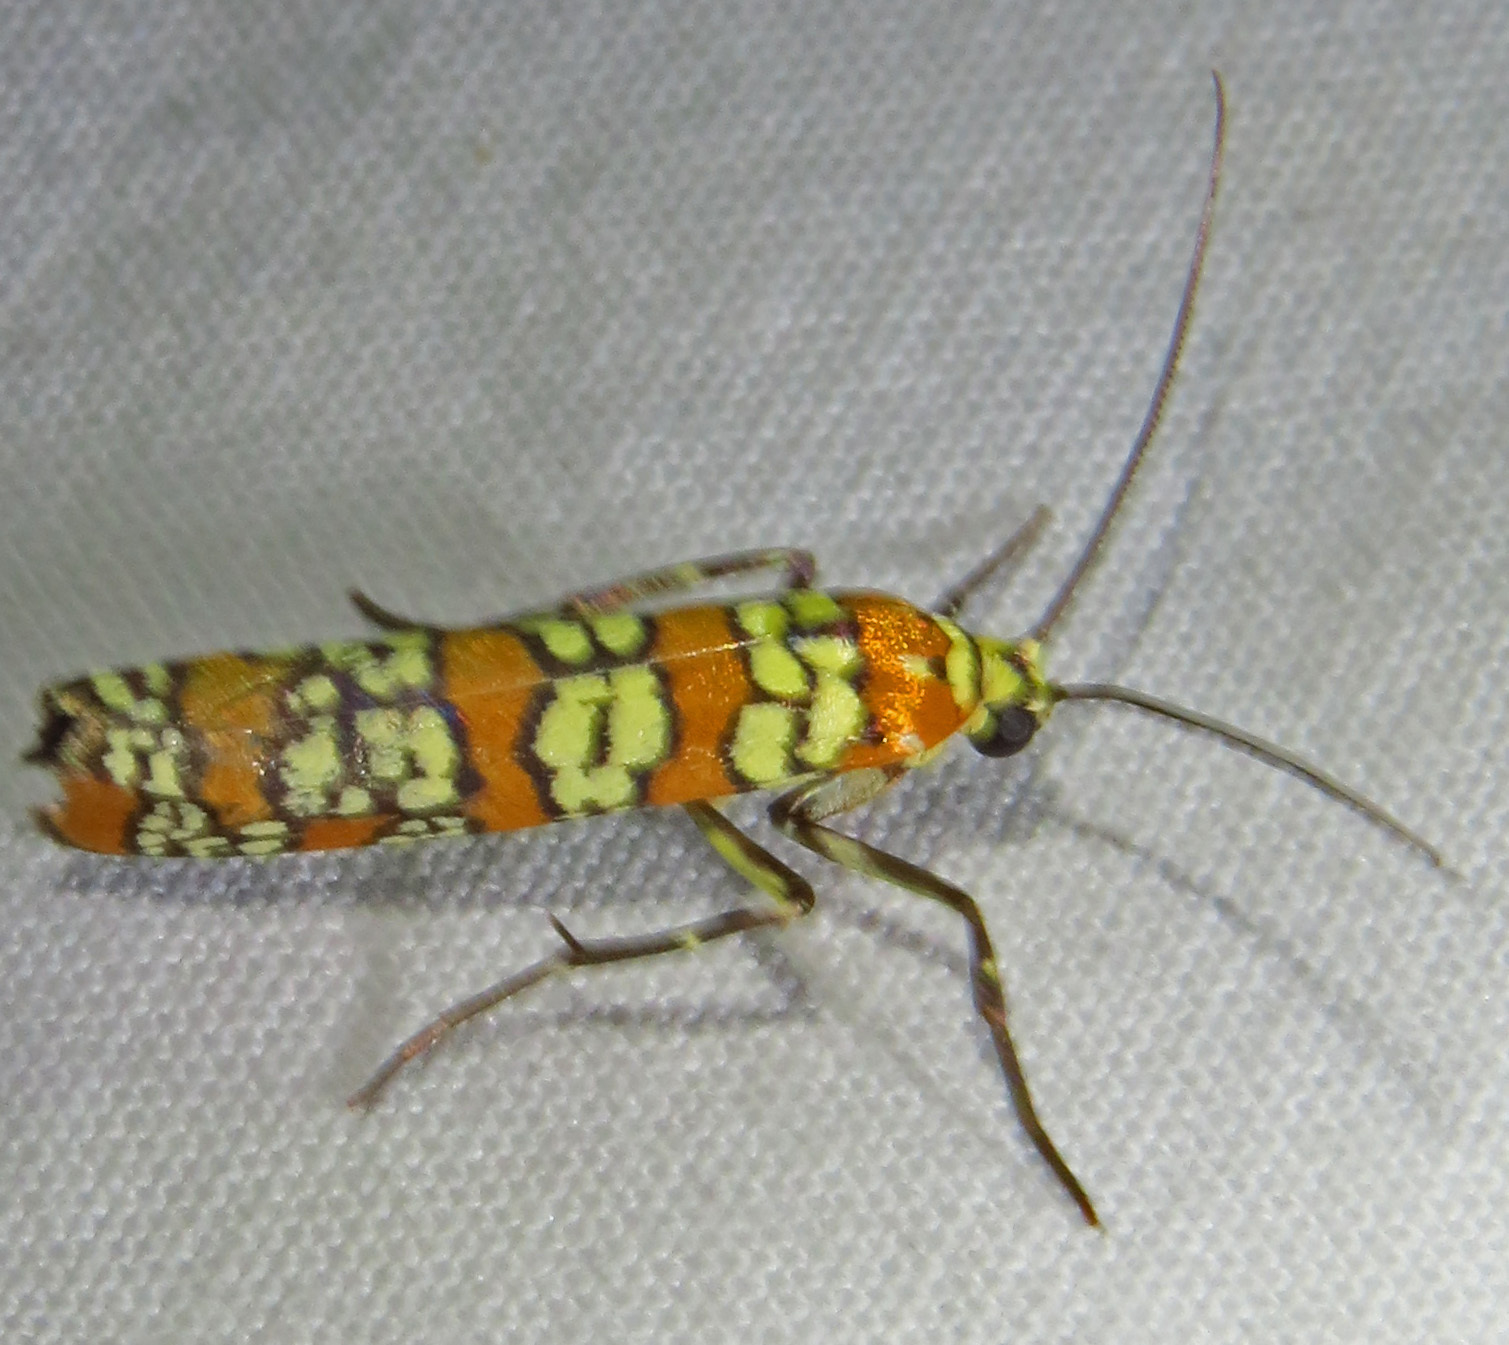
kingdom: Animalia
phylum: Arthropoda
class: Insecta
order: Lepidoptera
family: Attevidae
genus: Atteva
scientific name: Atteva punctella
